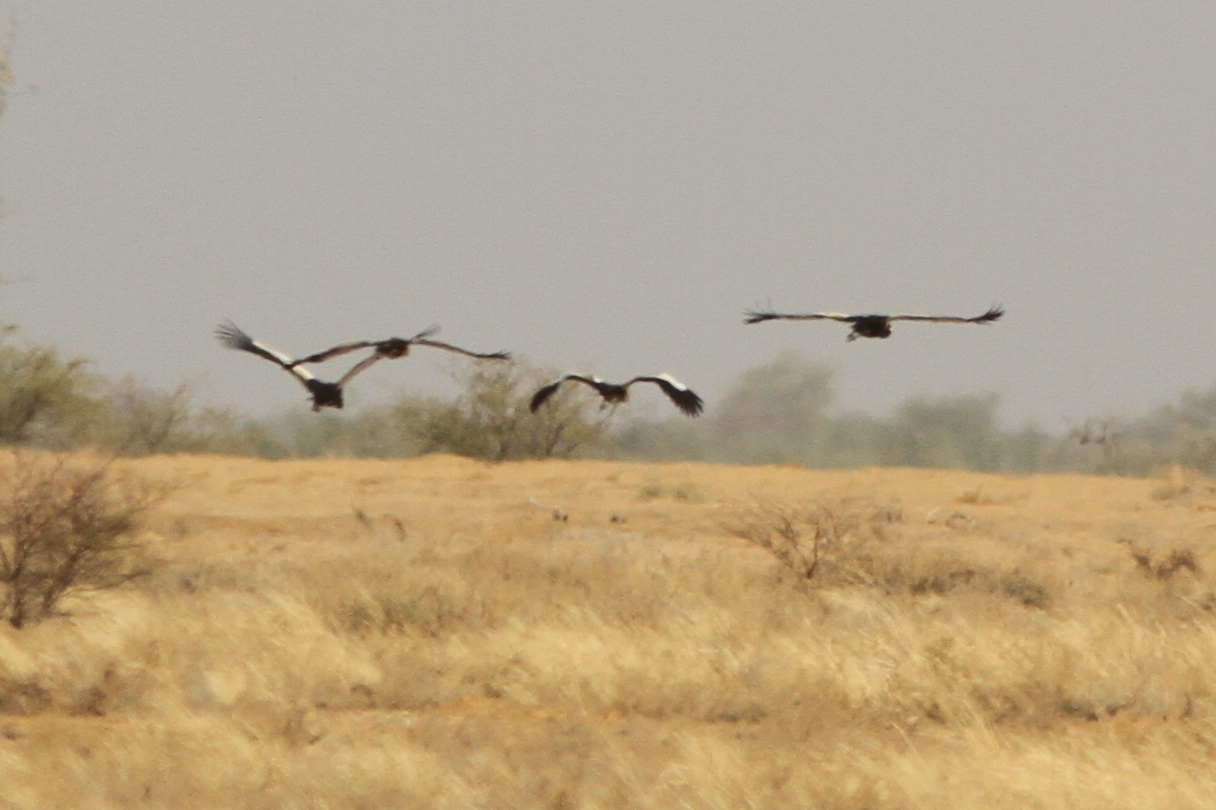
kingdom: Animalia
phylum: Chordata
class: Aves
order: Gruiformes
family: Gruidae
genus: Balearica
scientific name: Balearica pavonina
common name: Black crowned crane
